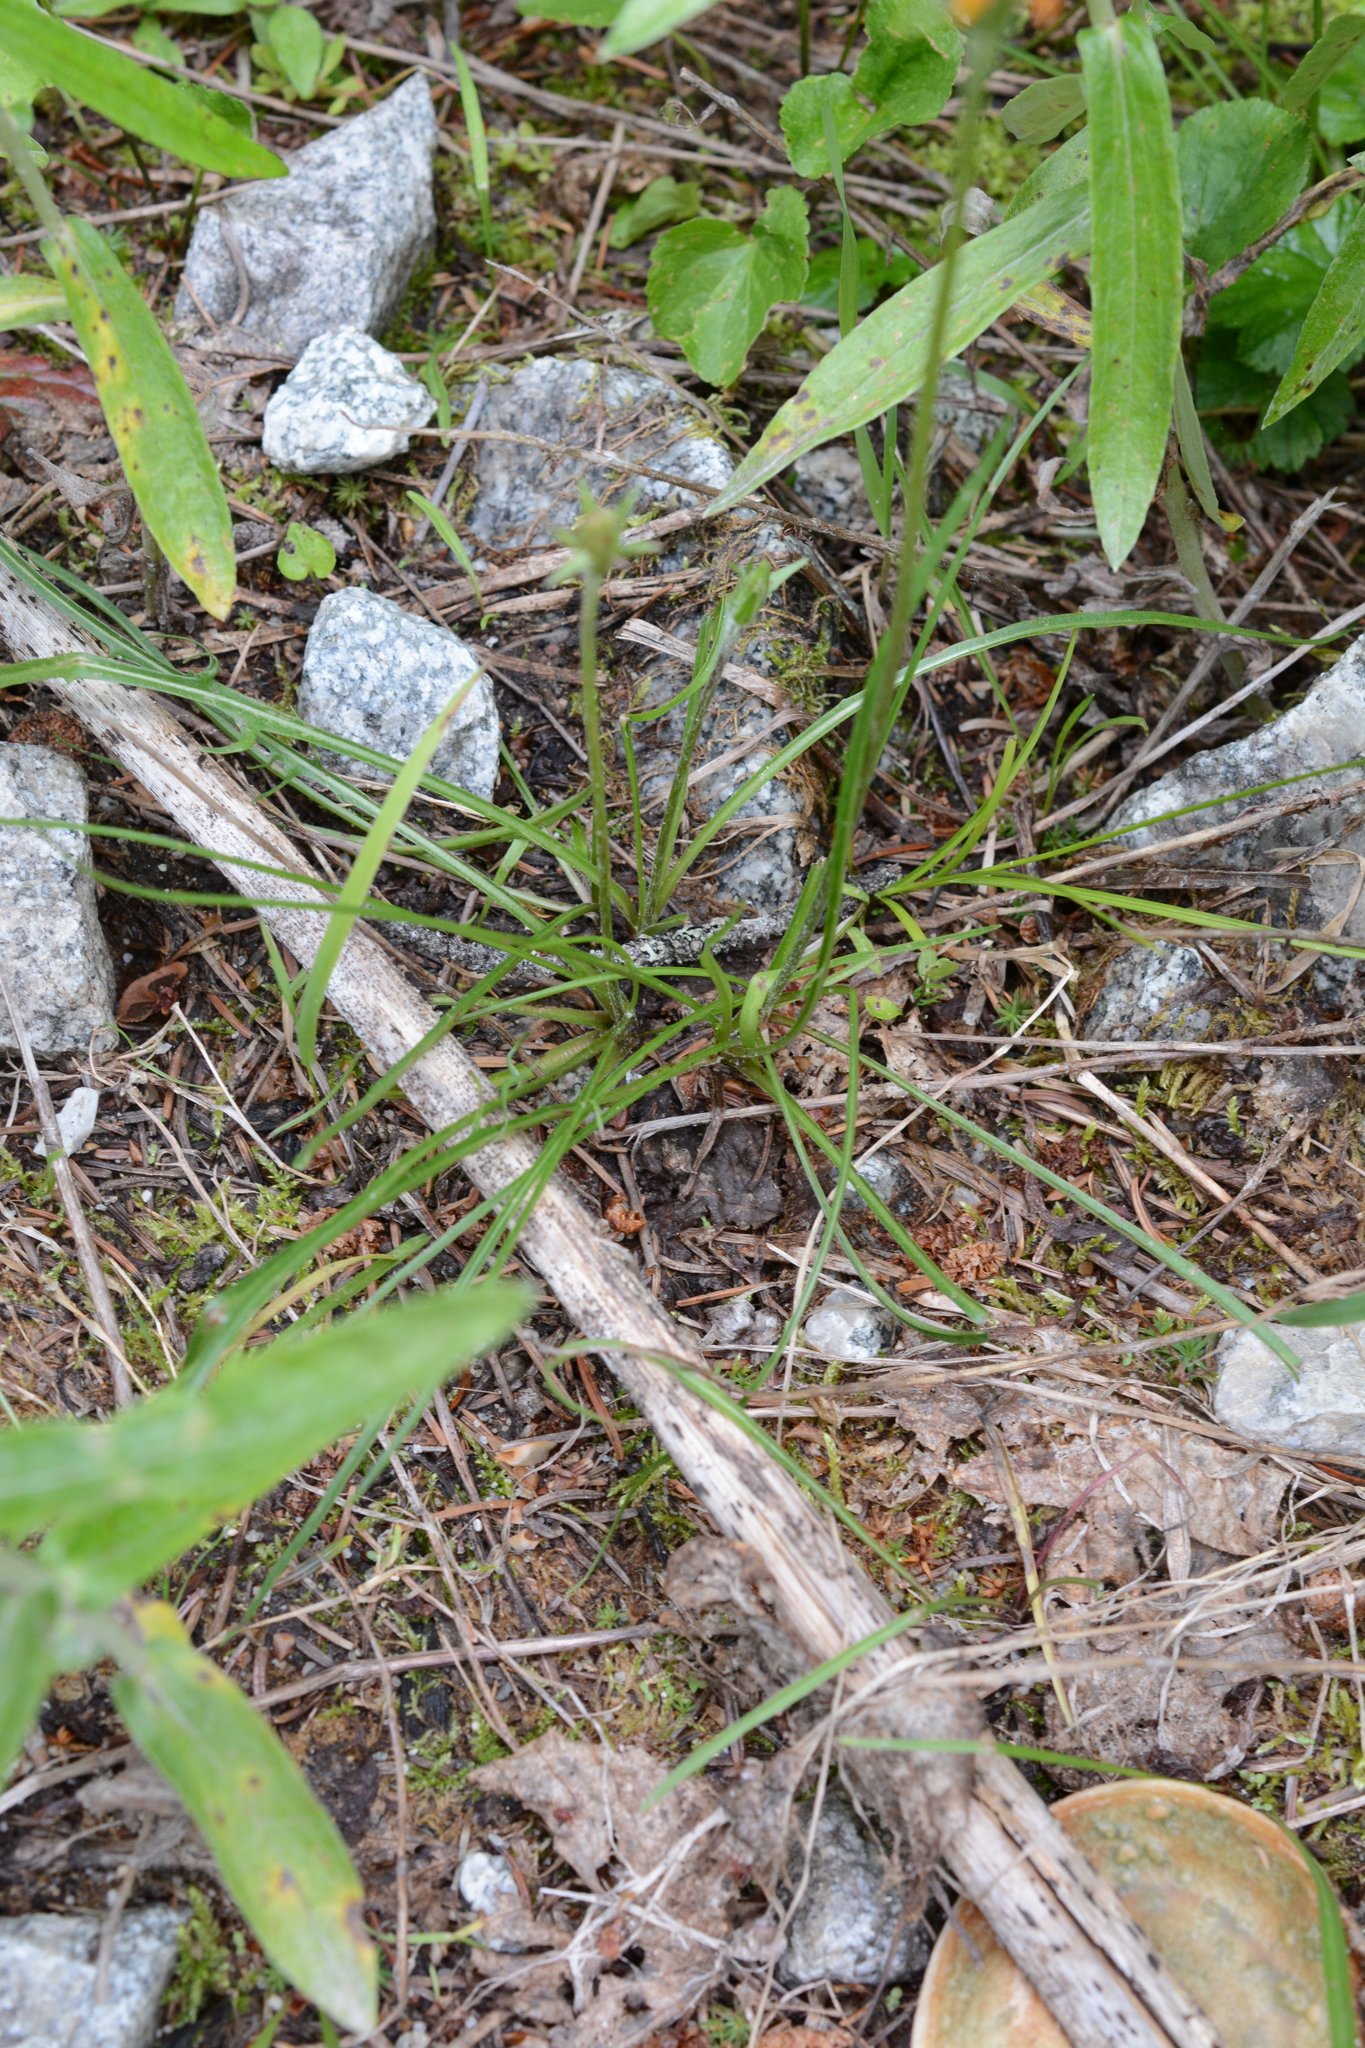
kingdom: Plantae
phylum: Tracheophyta
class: Magnoliopsida
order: Asterales
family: Asteraceae
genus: Agoseris
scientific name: Agoseris aurantiaca
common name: Mountain agoseris
